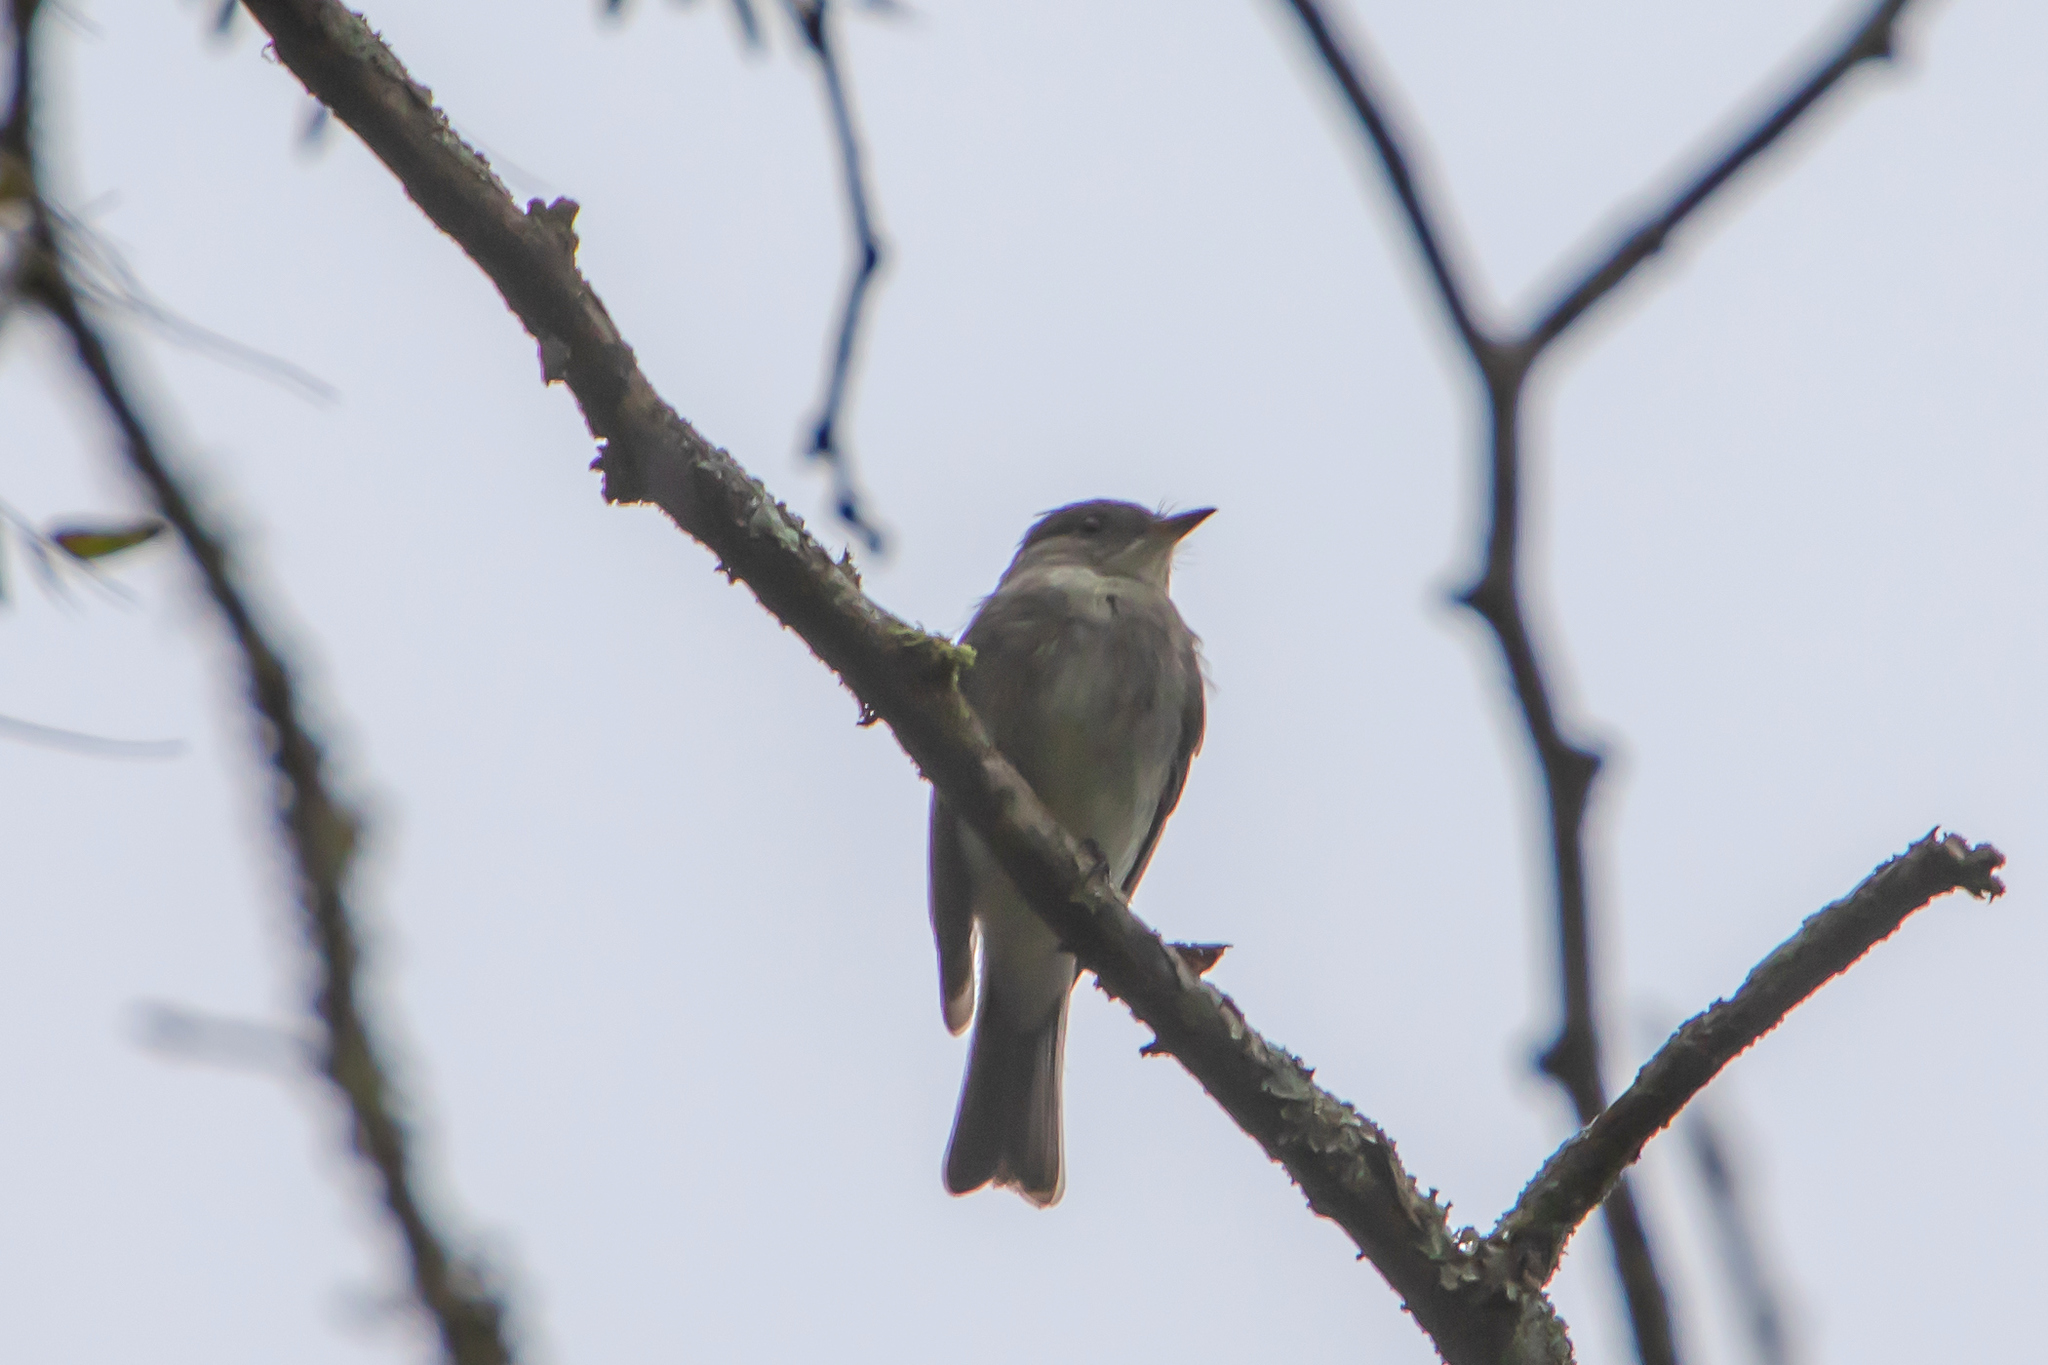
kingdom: Animalia
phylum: Chordata
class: Aves
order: Passeriformes
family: Tyrannidae
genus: Contopus
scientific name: Contopus virens
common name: Eastern wood-pewee
